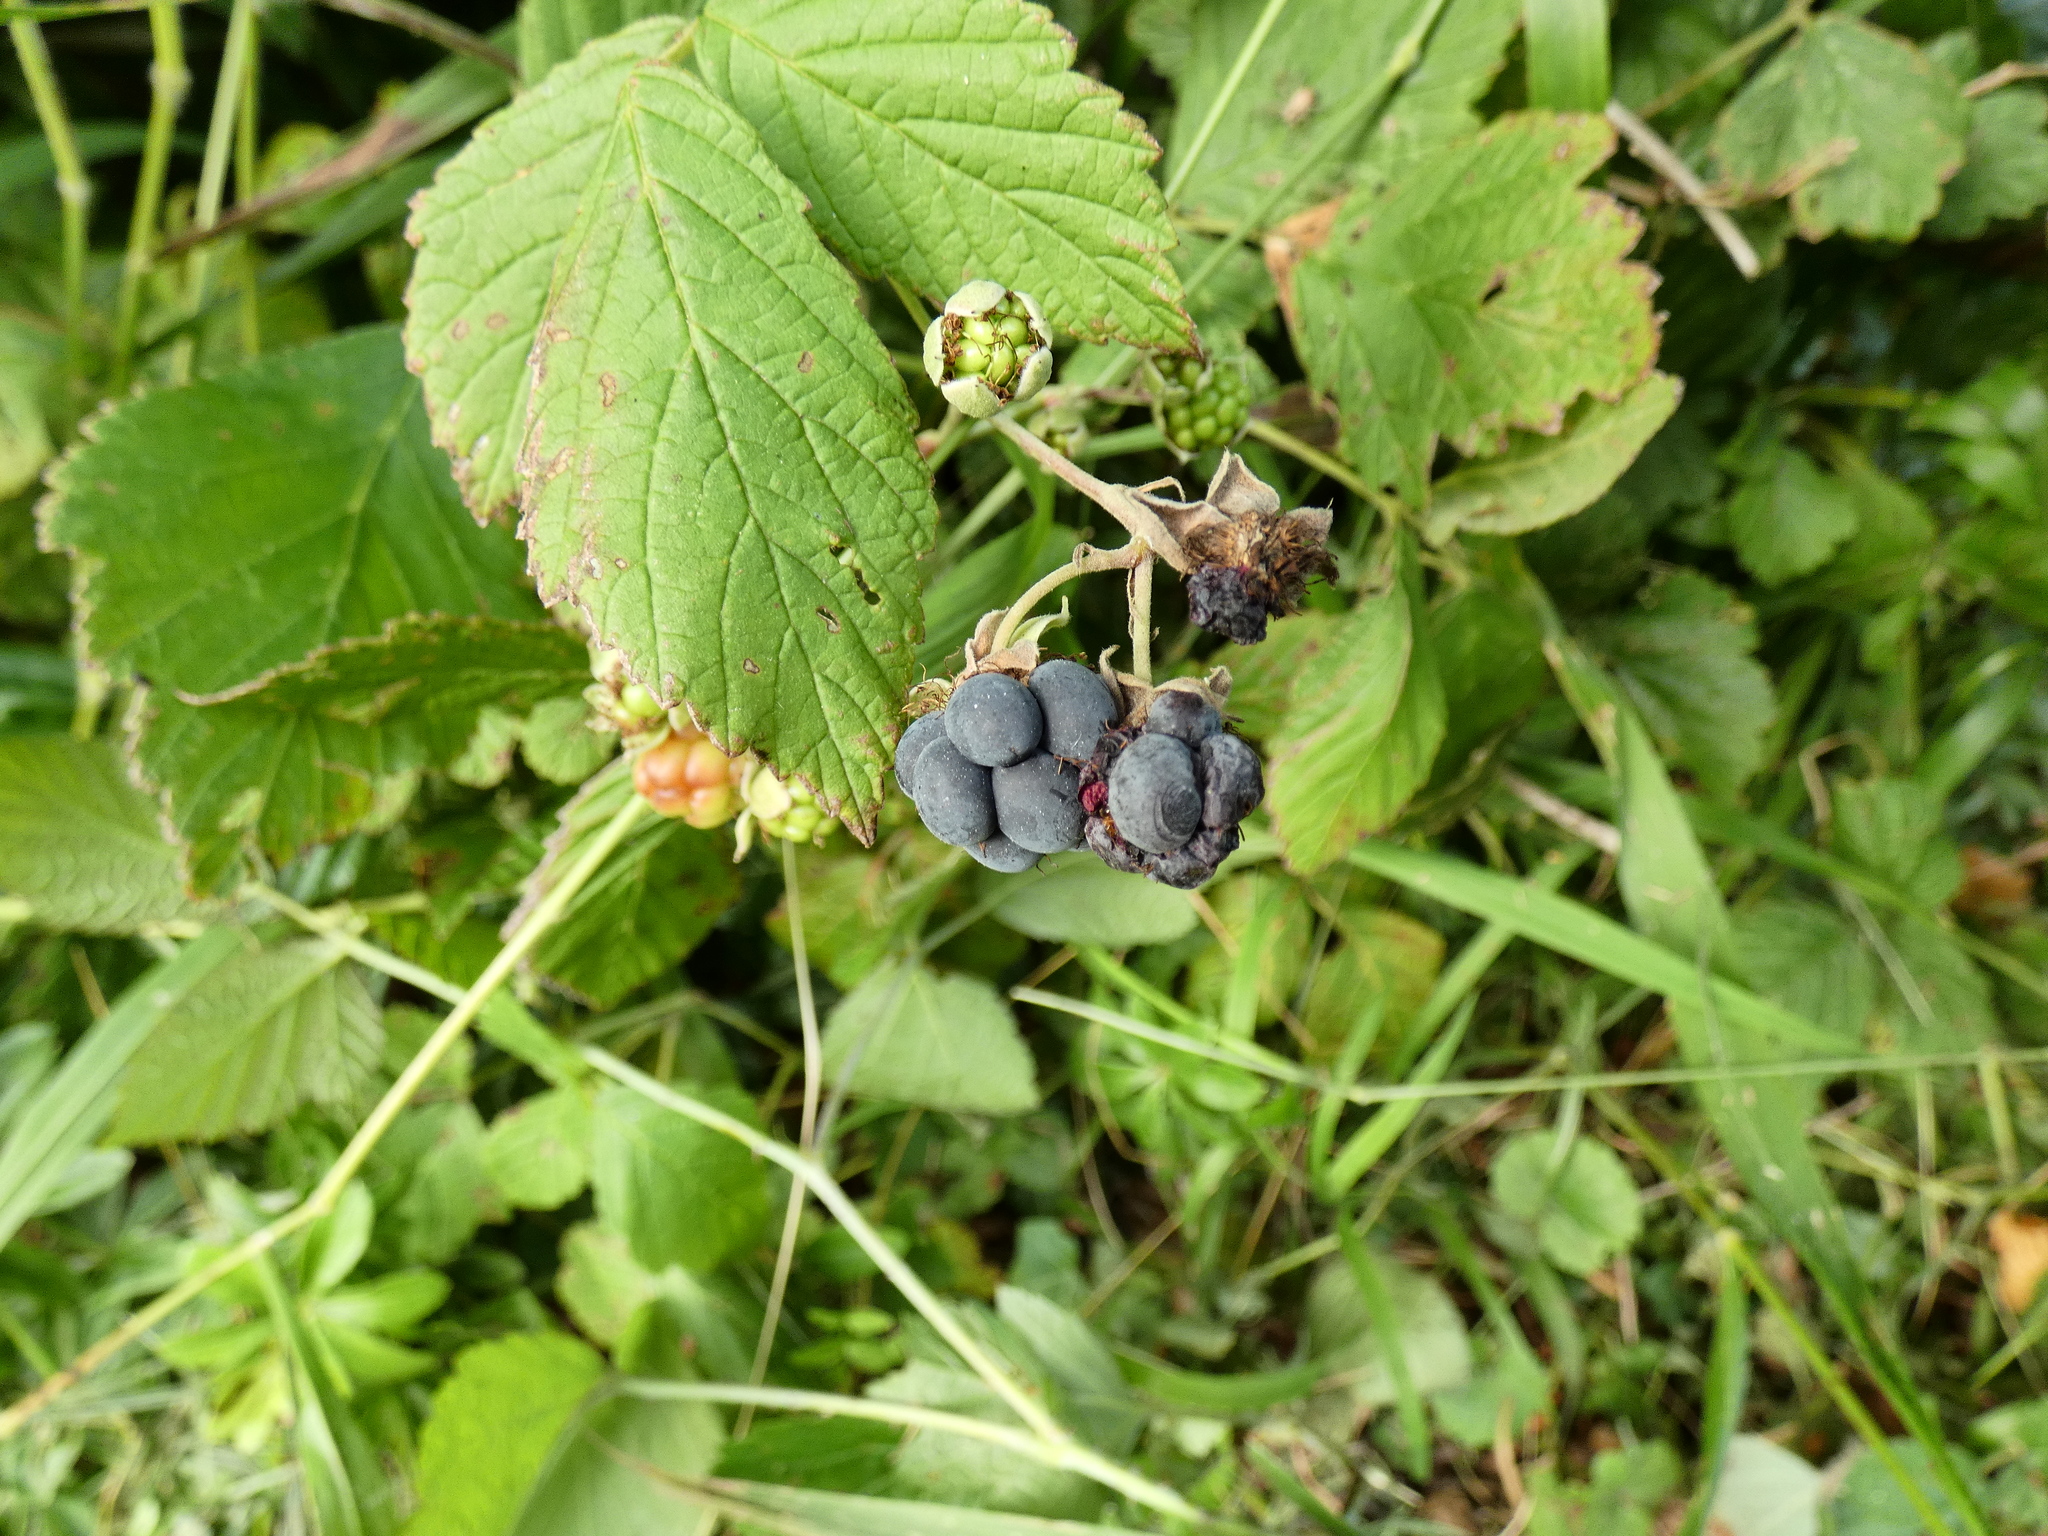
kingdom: Plantae
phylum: Tracheophyta
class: Magnoliopsida
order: Rosales
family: Rosaceae
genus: Rubus
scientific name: Rubus caesius
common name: Dewberry
